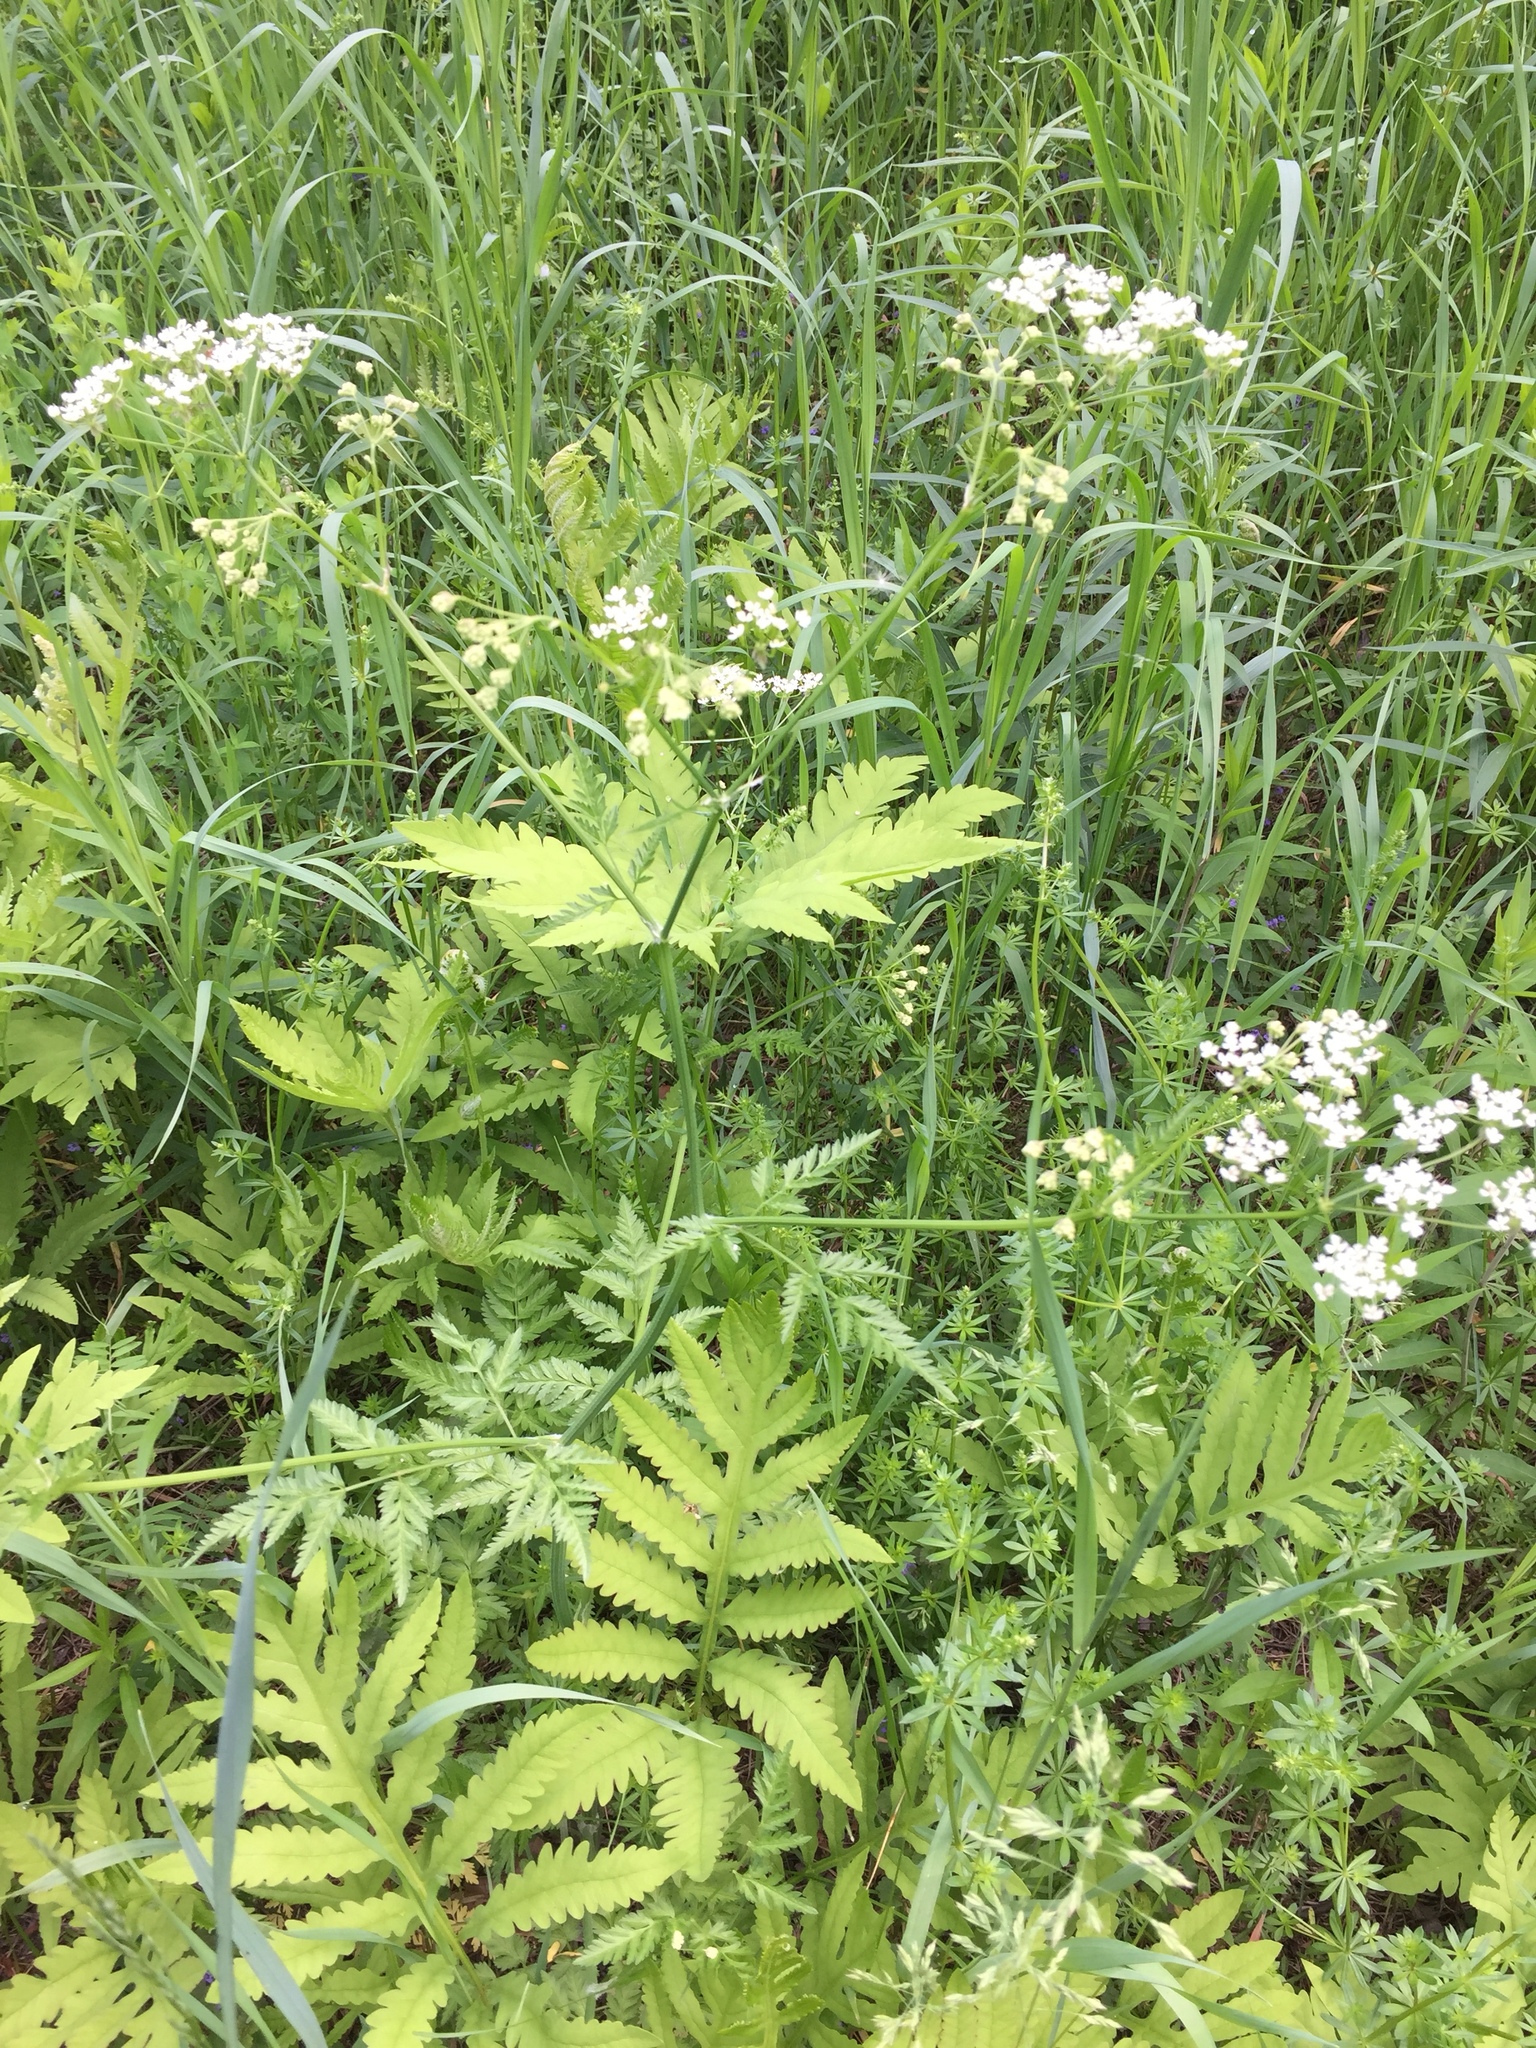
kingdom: Plantae
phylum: Tracheophyta
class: Magnoliopsida
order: Apiales
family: Apiaceae
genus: Anthriscus
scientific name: Anthriscus sylvestris
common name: Cow parsley
